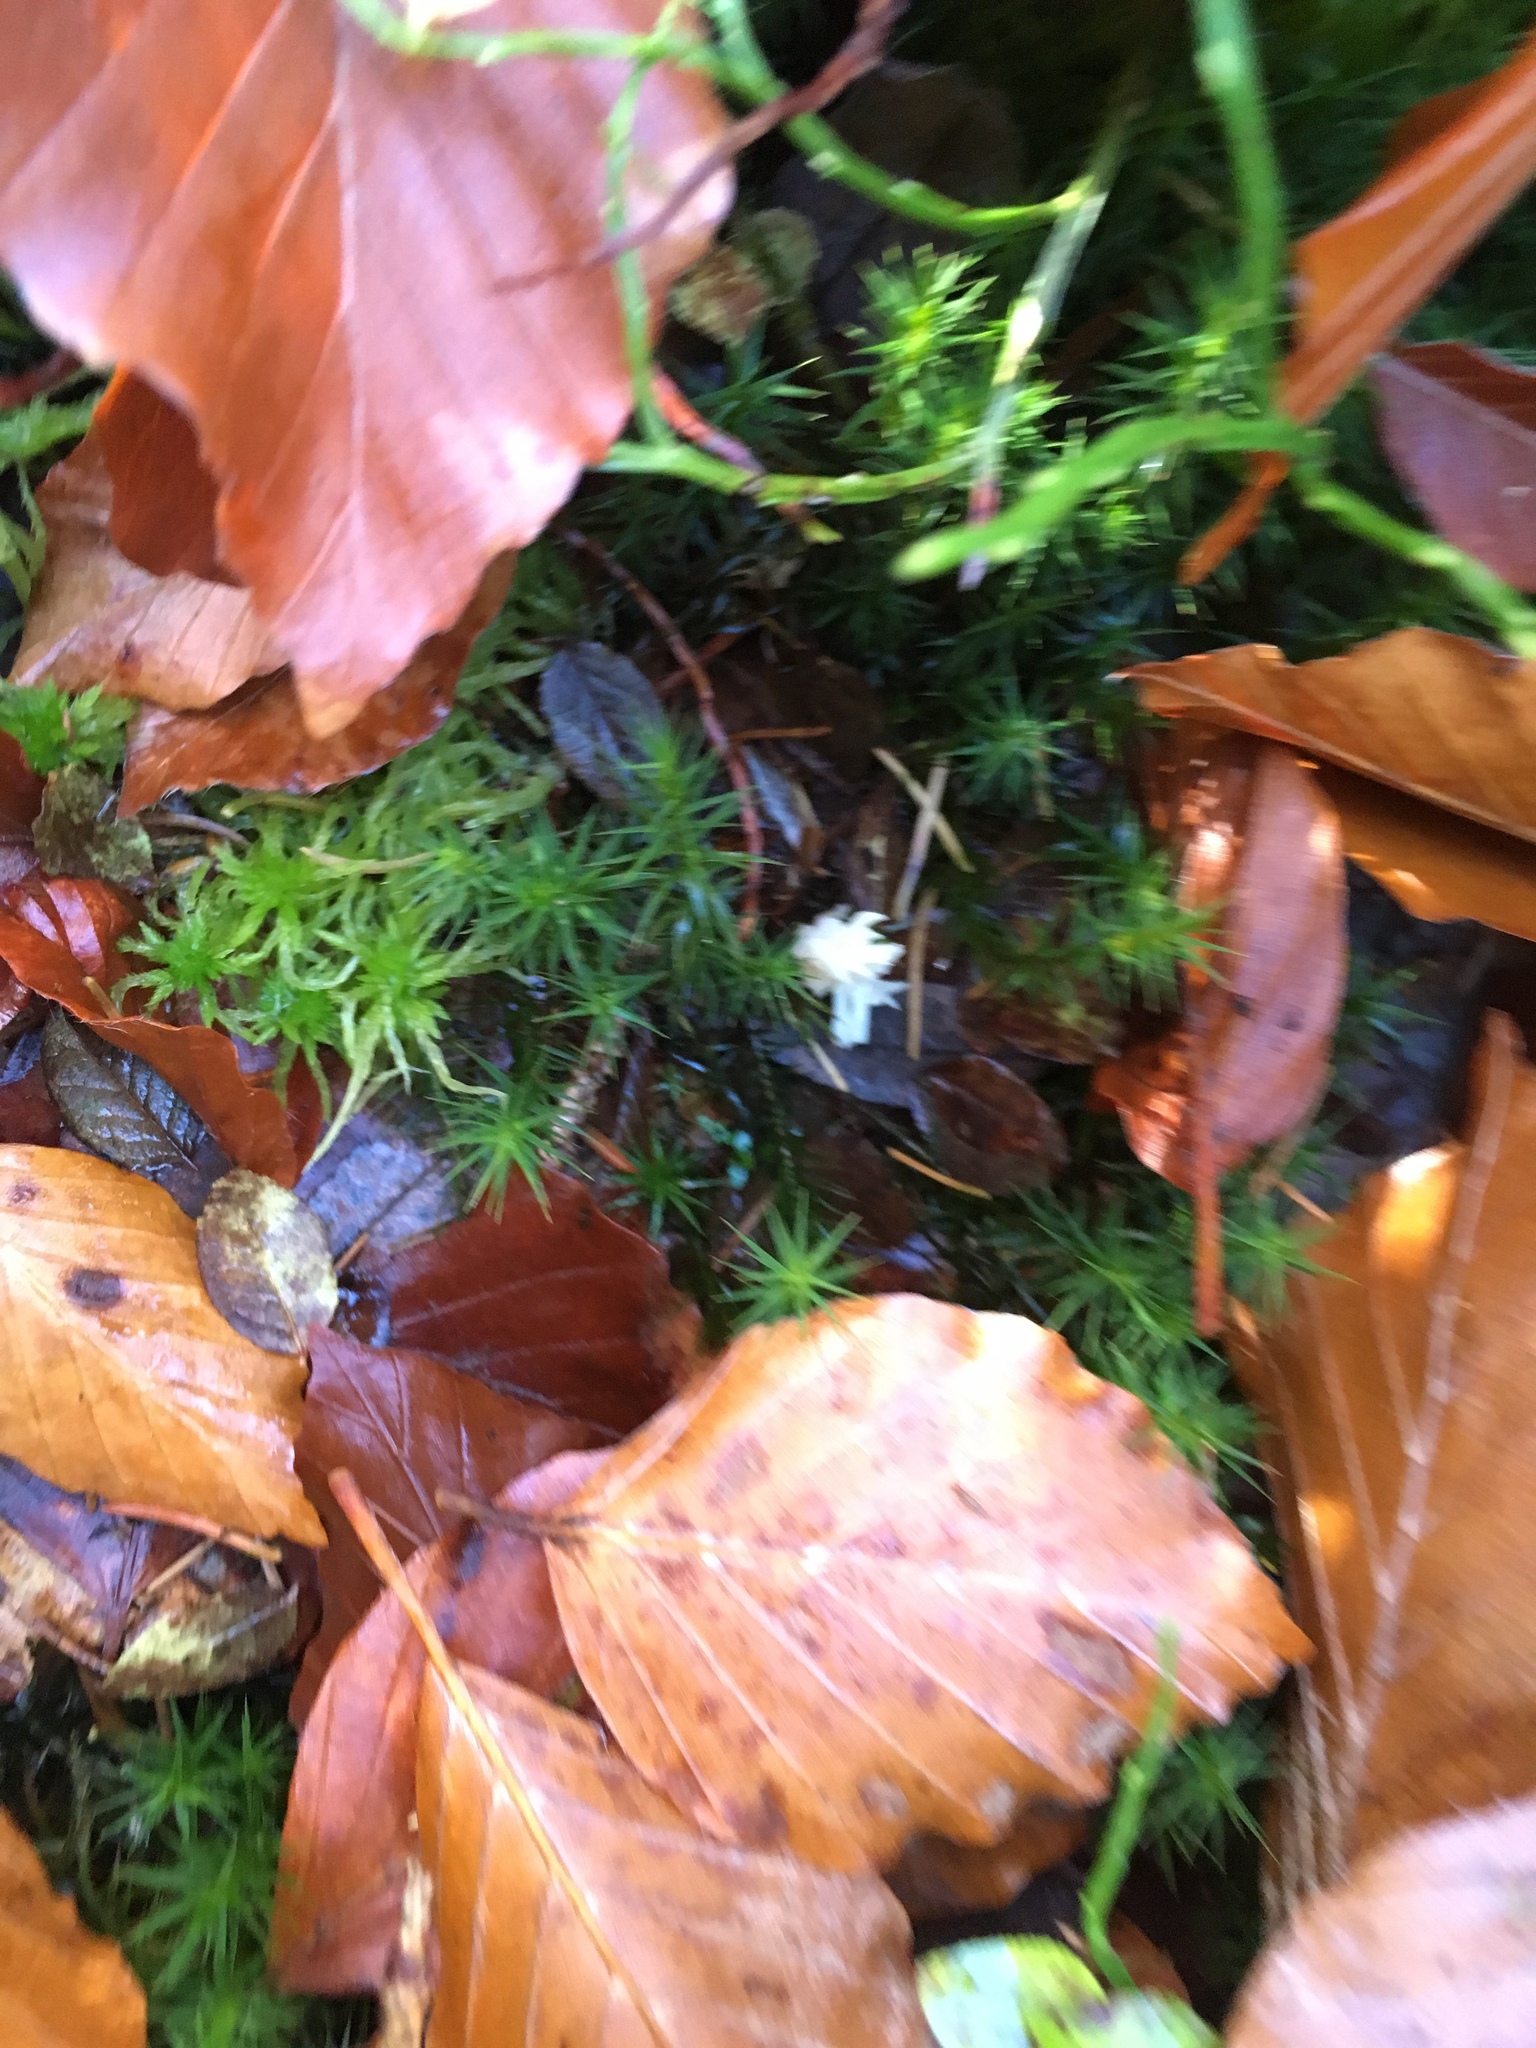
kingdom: Fungi
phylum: Basidiomycota
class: Agaricomycetes
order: Cantharellales
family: Hydnaceae
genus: Clavulina
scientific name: Clavulina coralloides
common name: Crested coral
